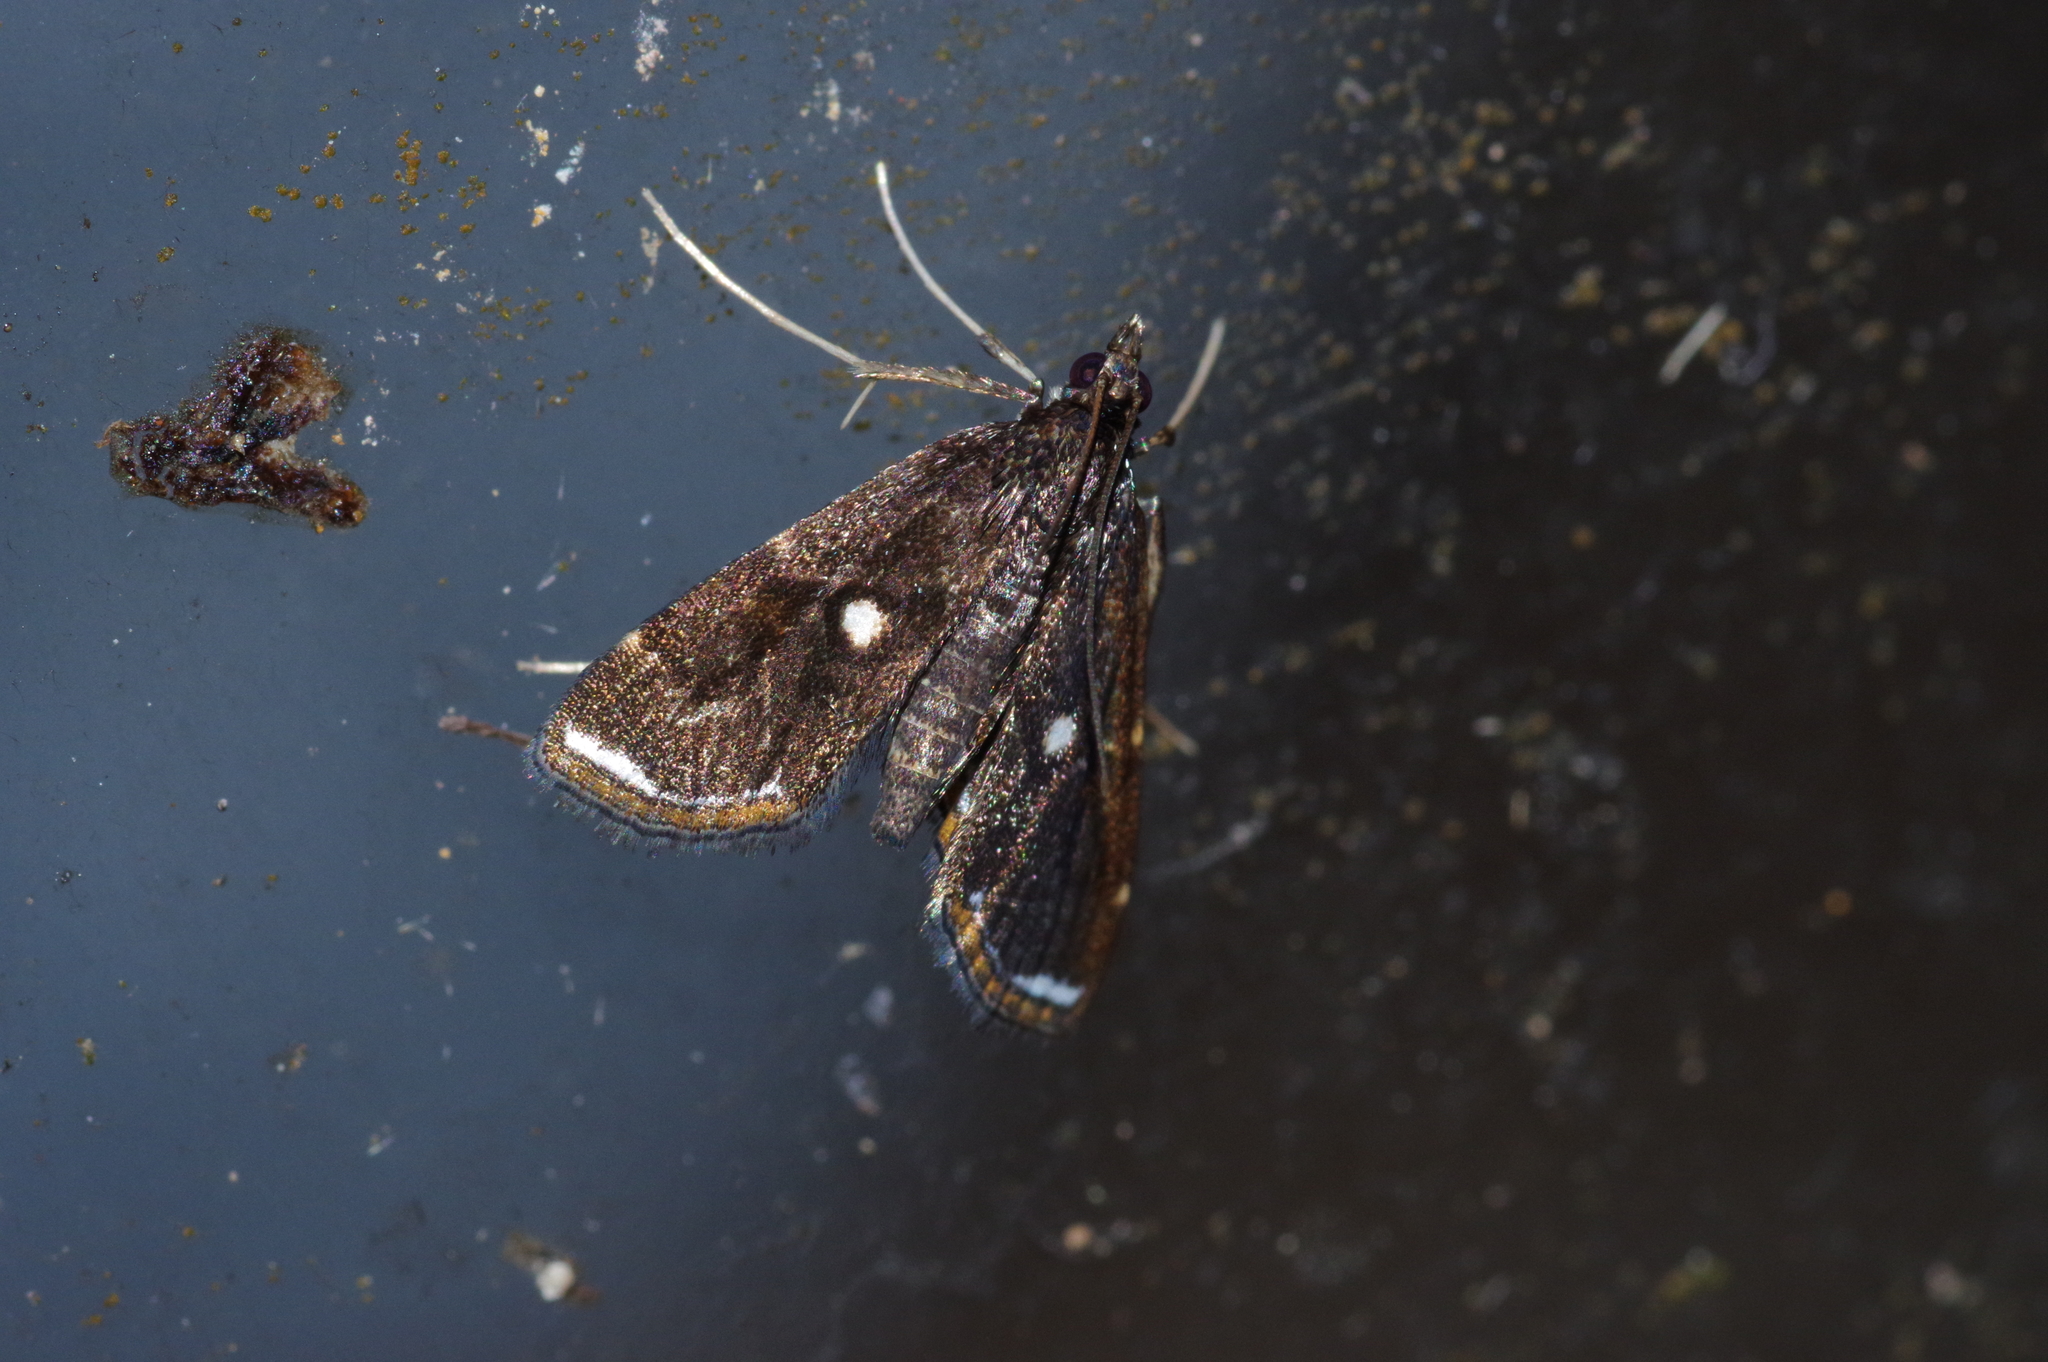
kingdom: Animalia
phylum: Arthropoda
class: Insecta
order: Lepidoptera
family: Crambidae
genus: Paracymoriza
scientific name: Paracymoriza okinawanus
